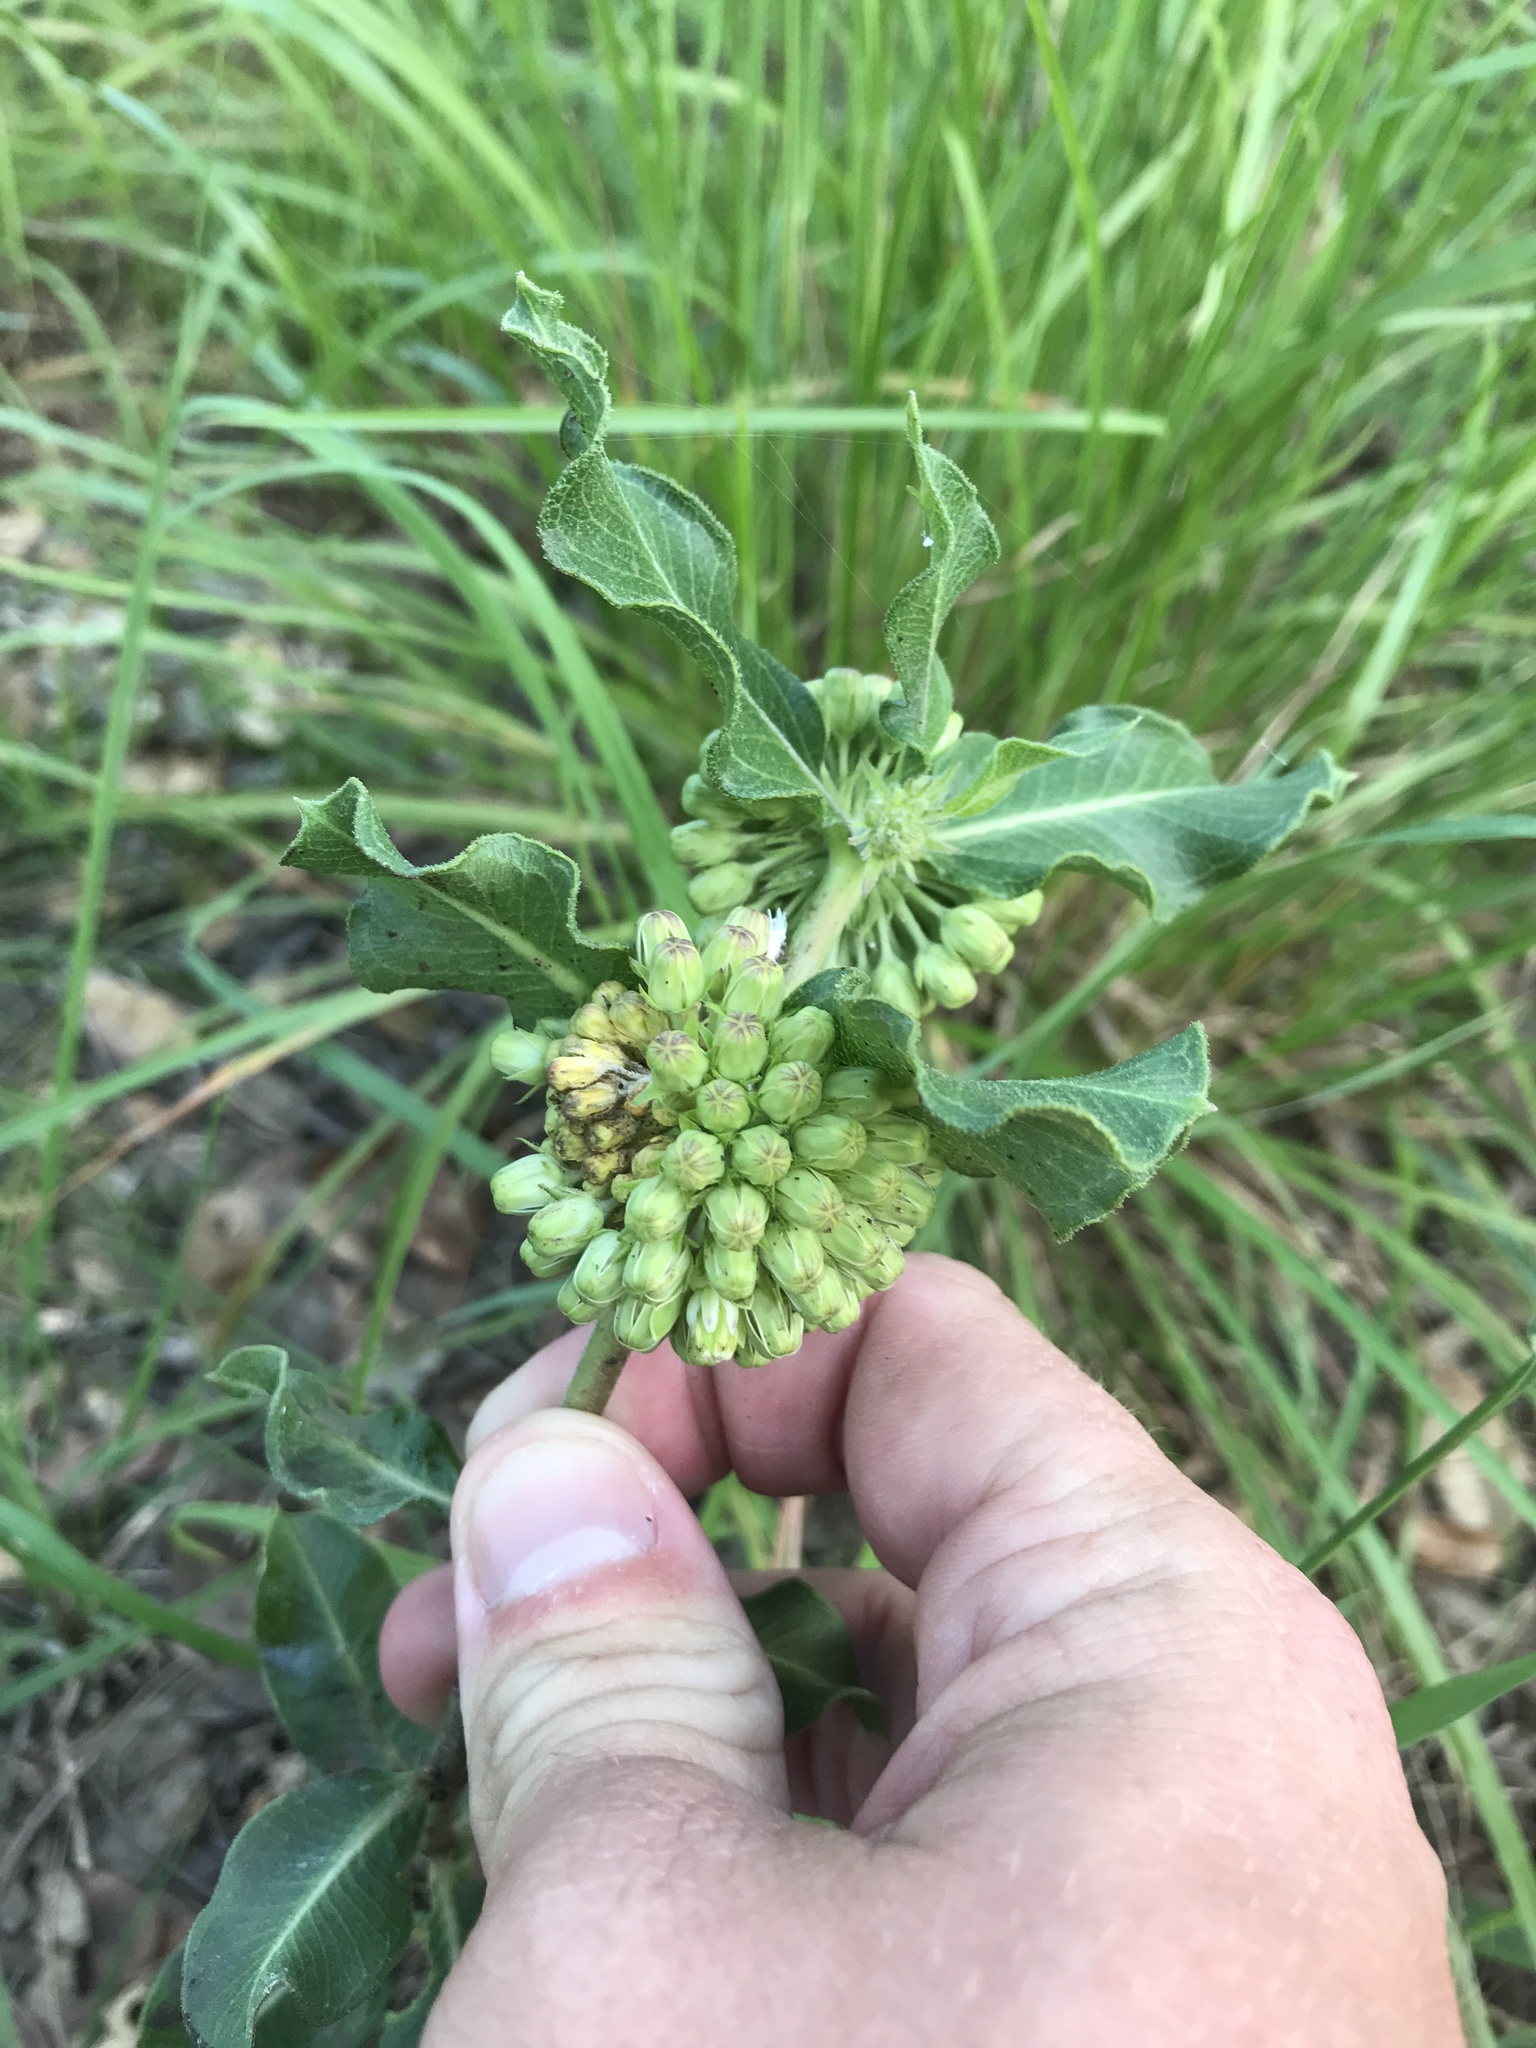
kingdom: Plantae
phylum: Tracheophyta
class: Magnoliopsida
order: Gentianales
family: Apocynaceae
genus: Asclepias
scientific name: Asclepias viridiflora
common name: Green comet milkweed
